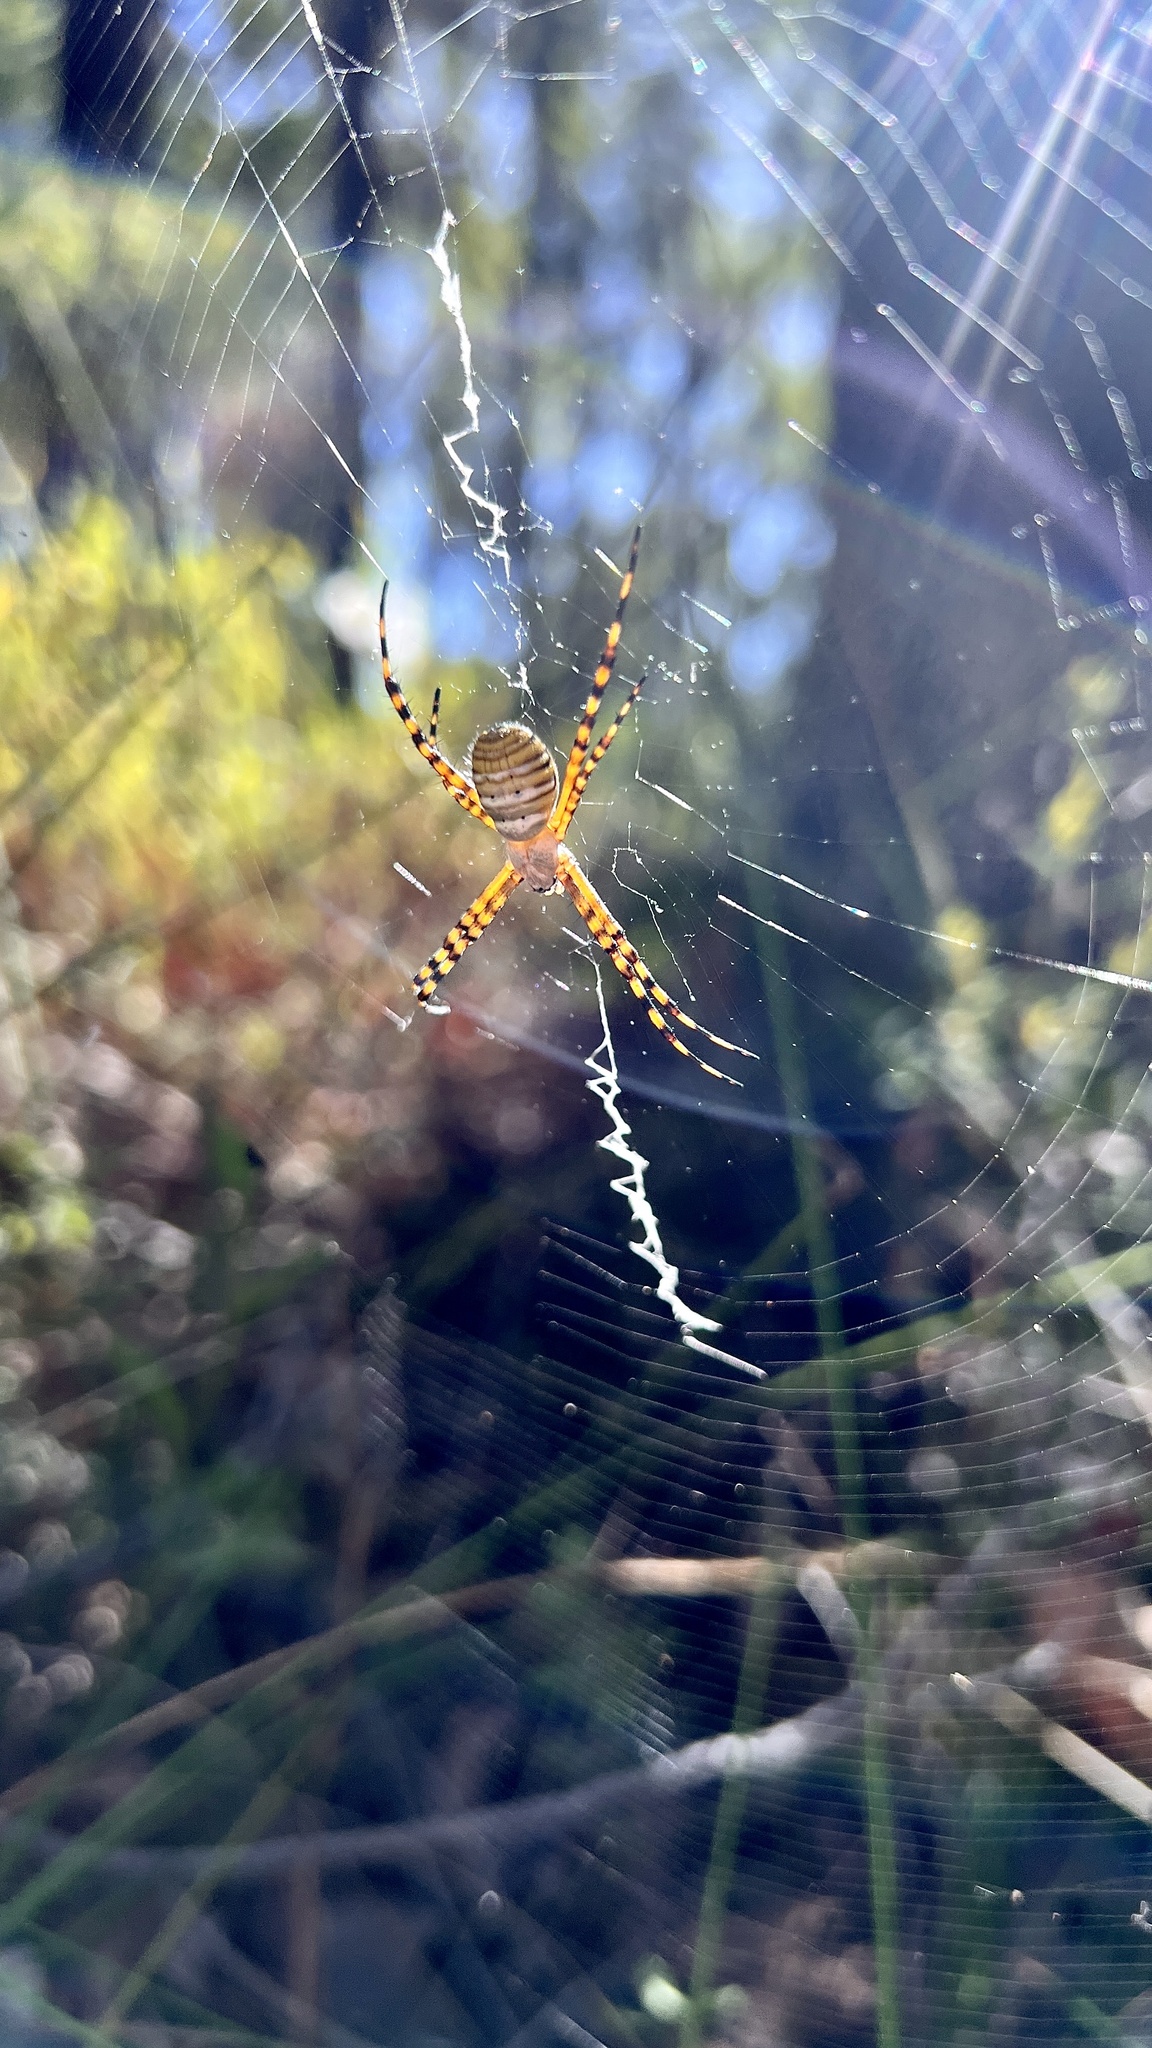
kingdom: Animalia
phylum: Arthropoda
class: Arachnida
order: Araneae
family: Araneidae
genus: Argiope
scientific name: Argiope trifasciata
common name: Banded garden spider
